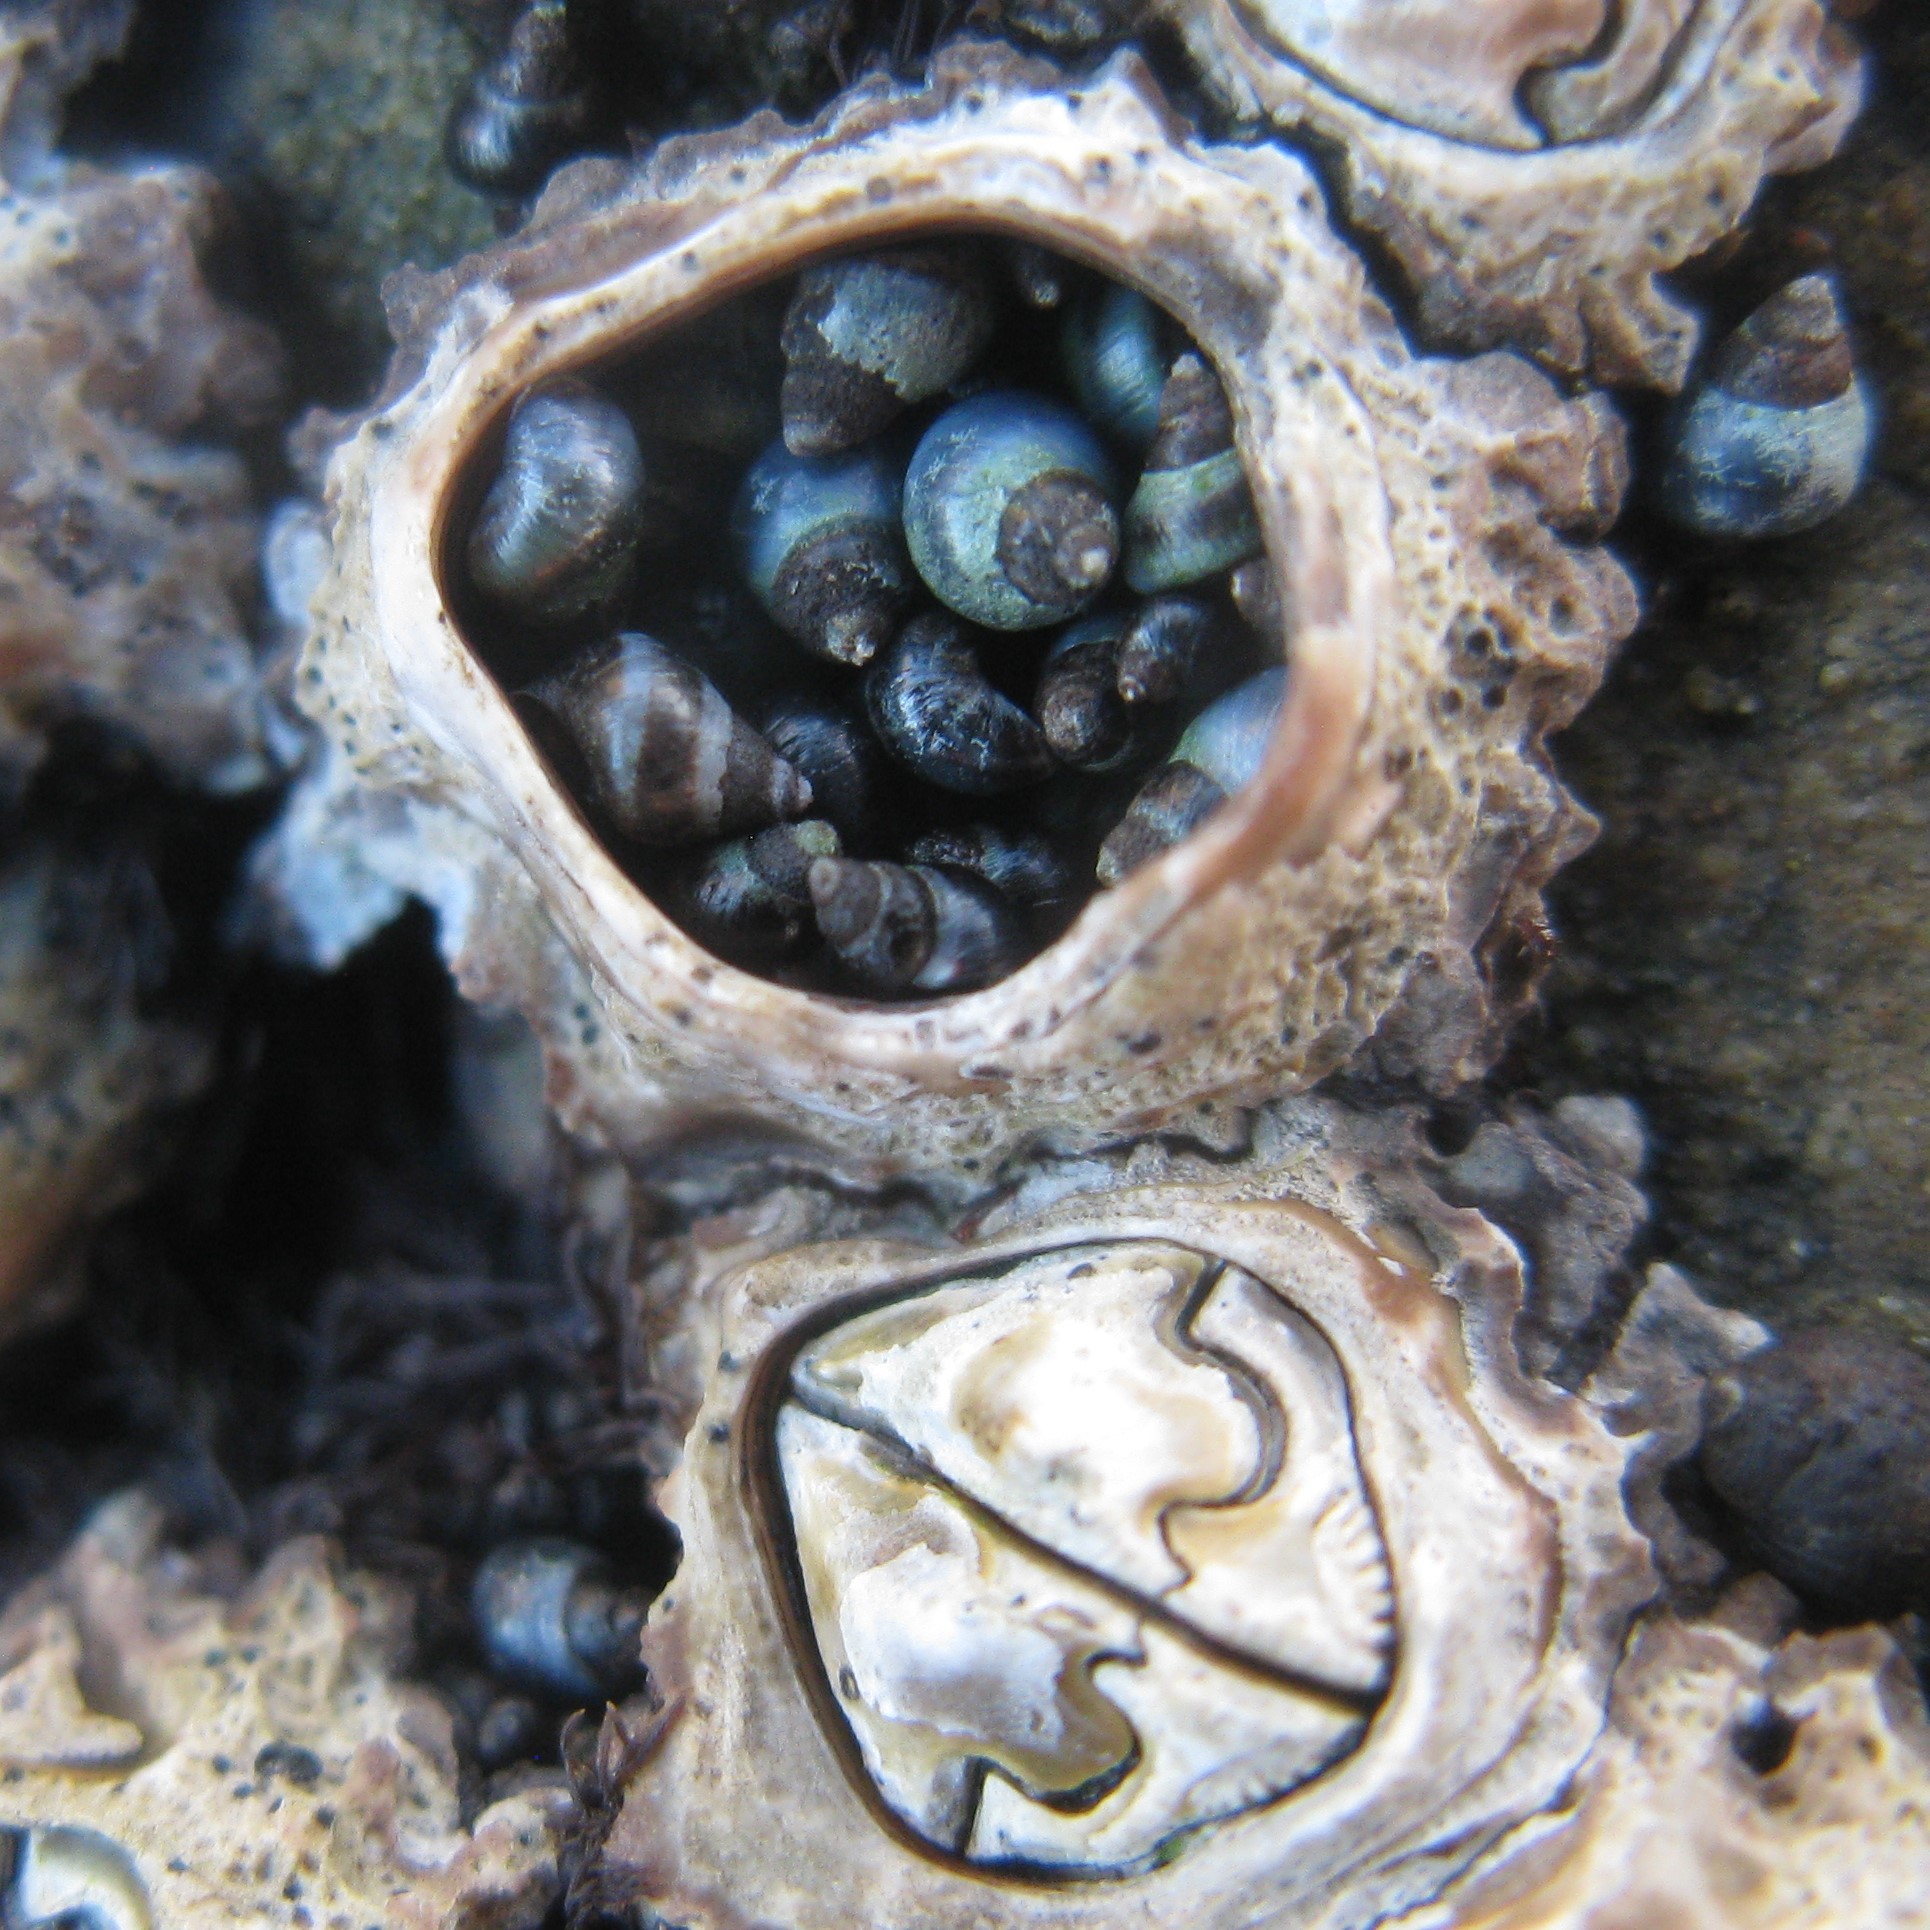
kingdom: Animalia
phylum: Mollusca
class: Gastropoda
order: Littorinimorpha
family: Littorinidae
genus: Austrolittorina
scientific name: Austrolittorina antipodum
